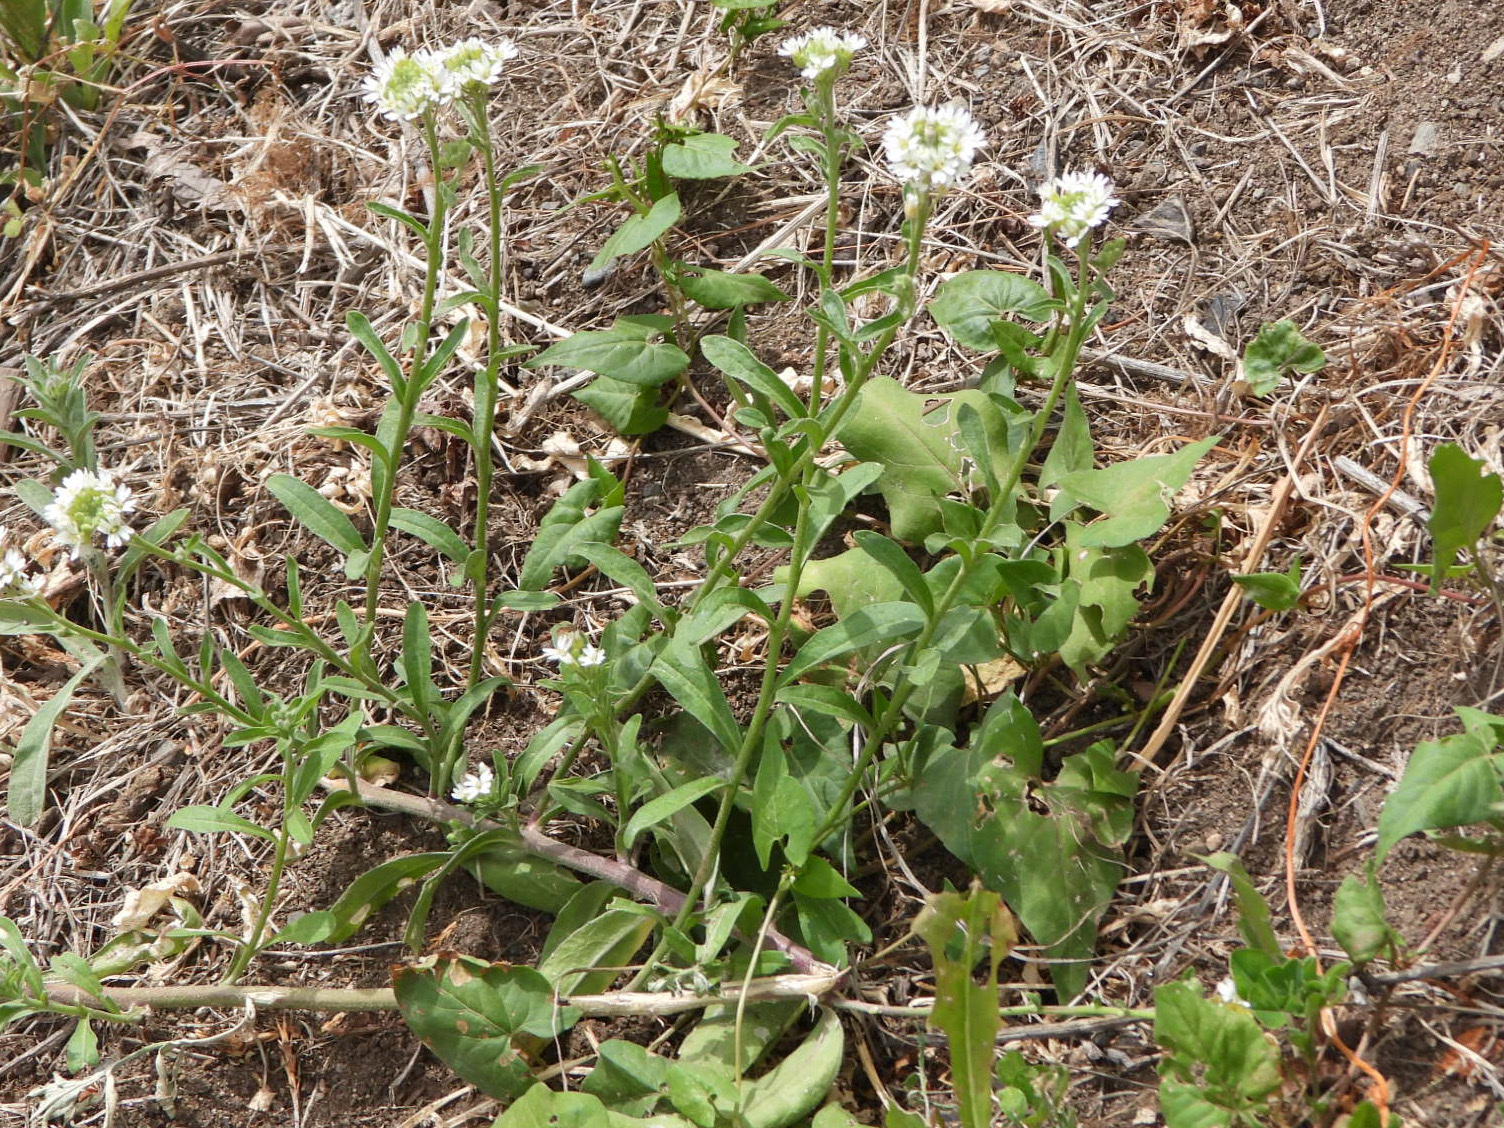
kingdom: Plantae
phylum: Tracheophyta
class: Magnoliopsida
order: Brassicales
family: Brassicaceae
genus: Berteroa
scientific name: Berteroa incana
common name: Hoary alison
